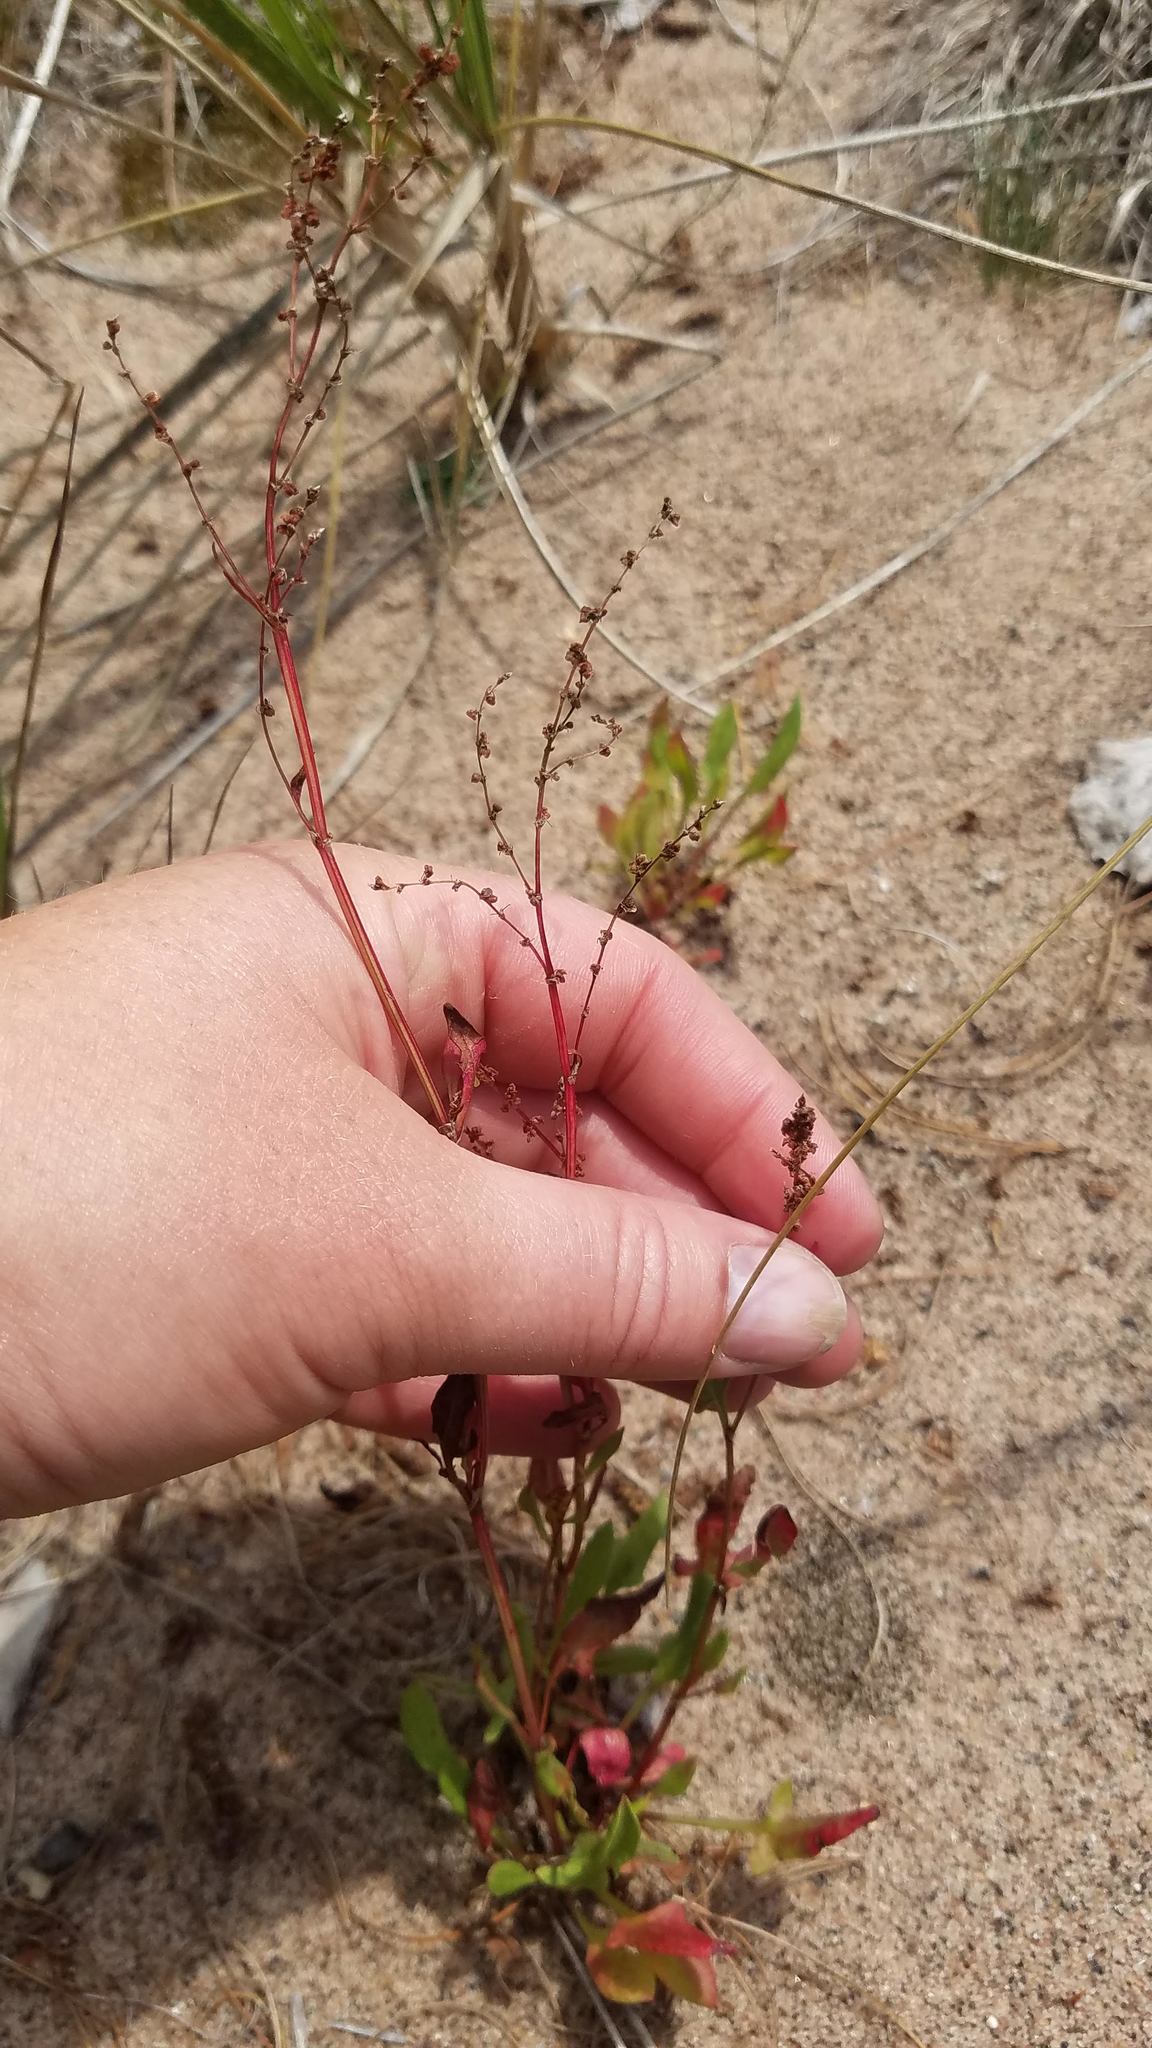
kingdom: Plantae
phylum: Tracheophyta
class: Magnoliopsida
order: Caryophyllales
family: Polygonaceae
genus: Rumex
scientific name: Rumex acetosella
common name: Common sheep sorrel
